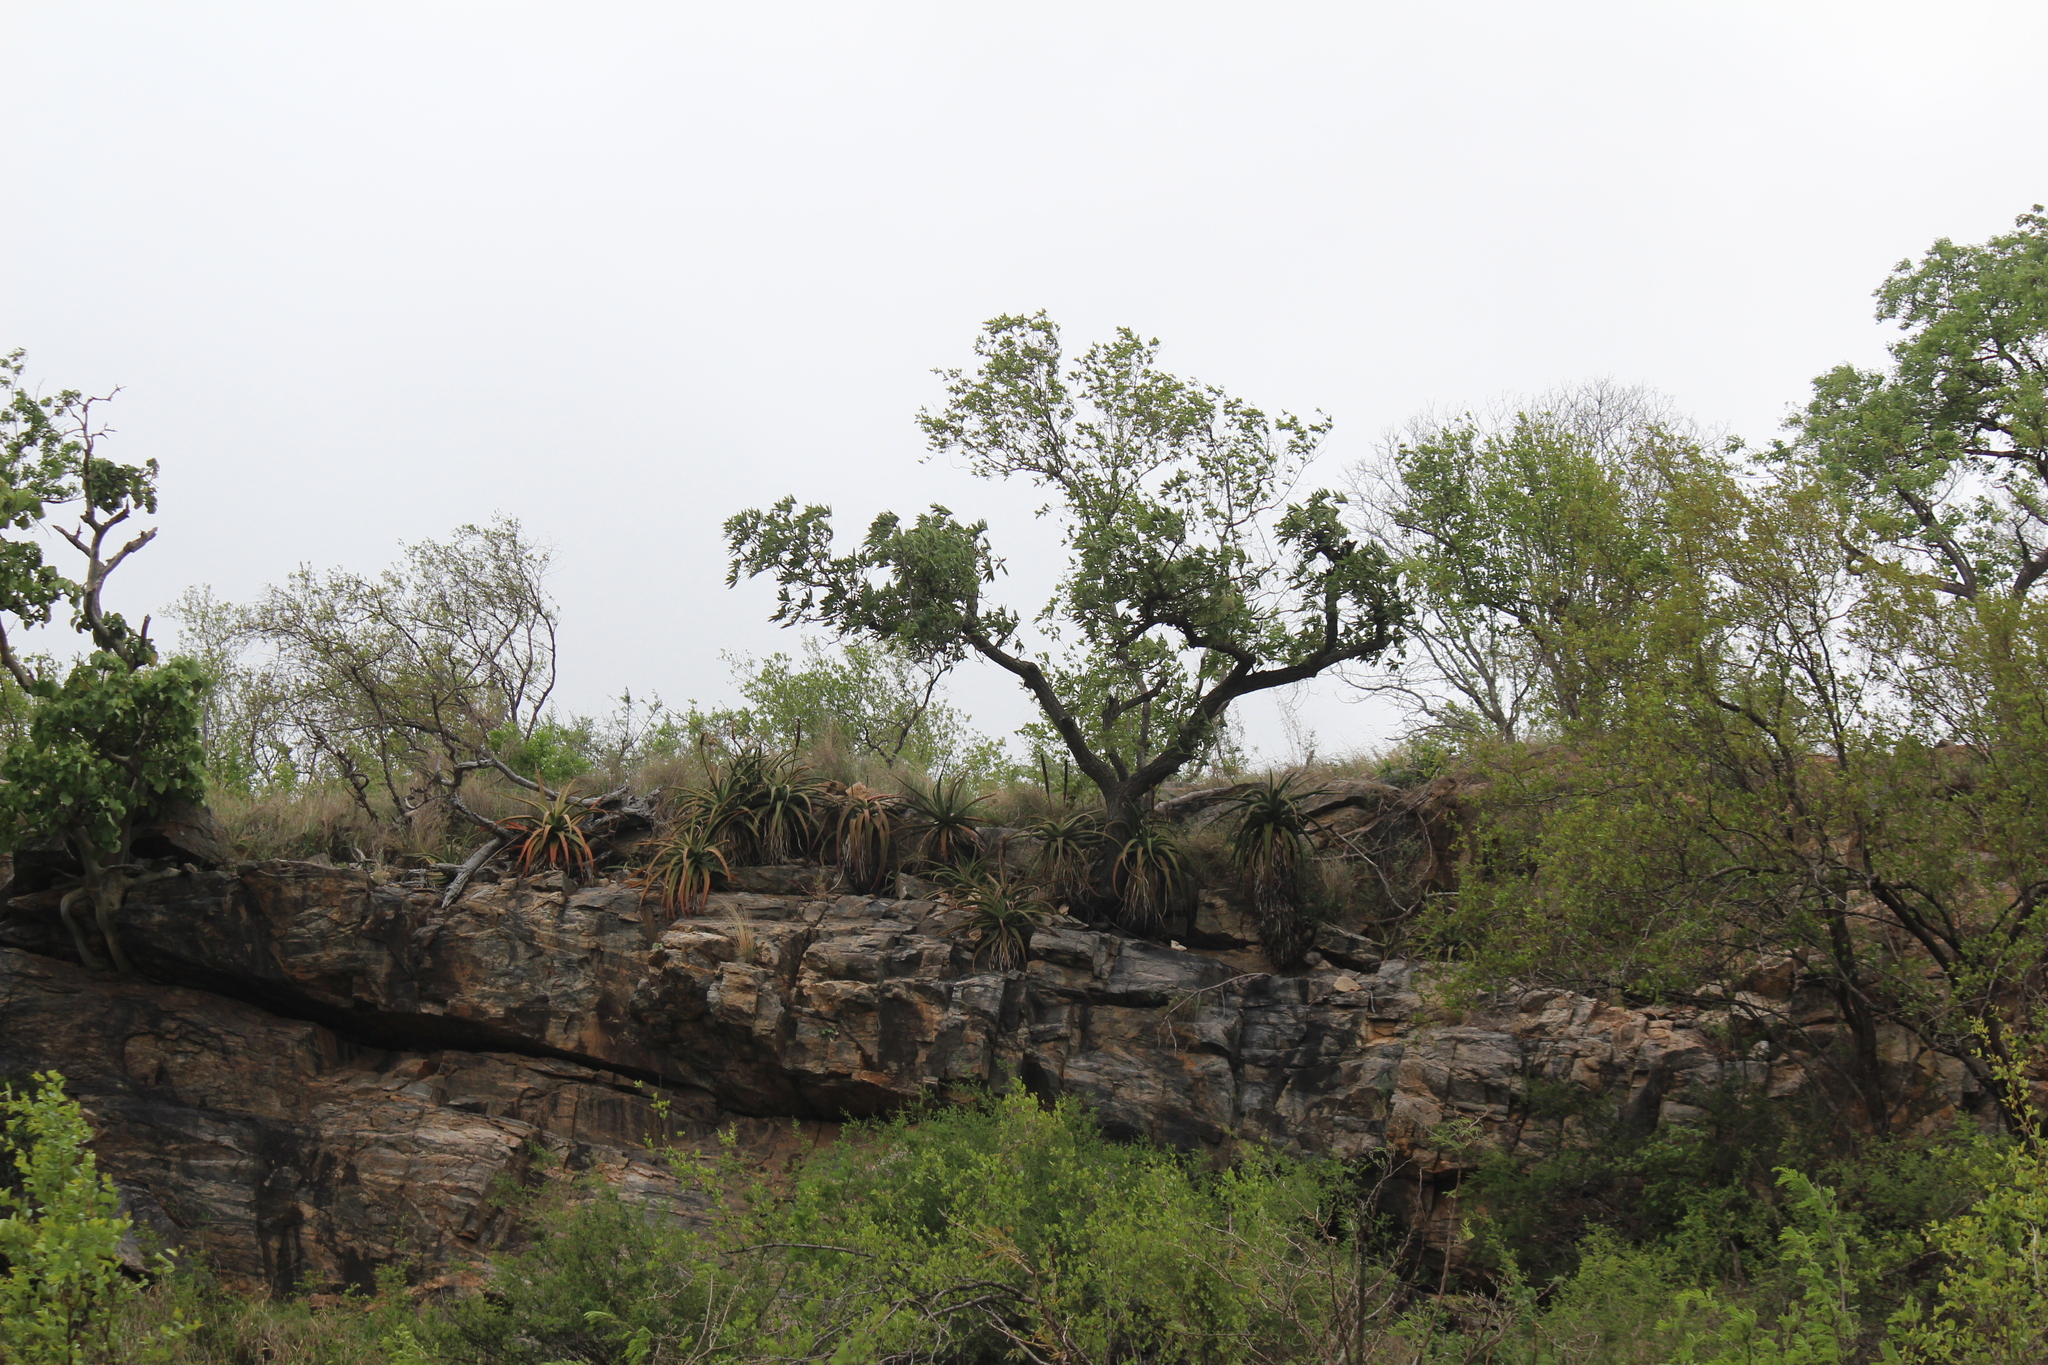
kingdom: Plantae
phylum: Tracheophyta
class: Liliopsida
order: Asparagales
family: Asphodelaceae
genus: Aloe
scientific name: Aloe spicata
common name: Gazaland aloe
